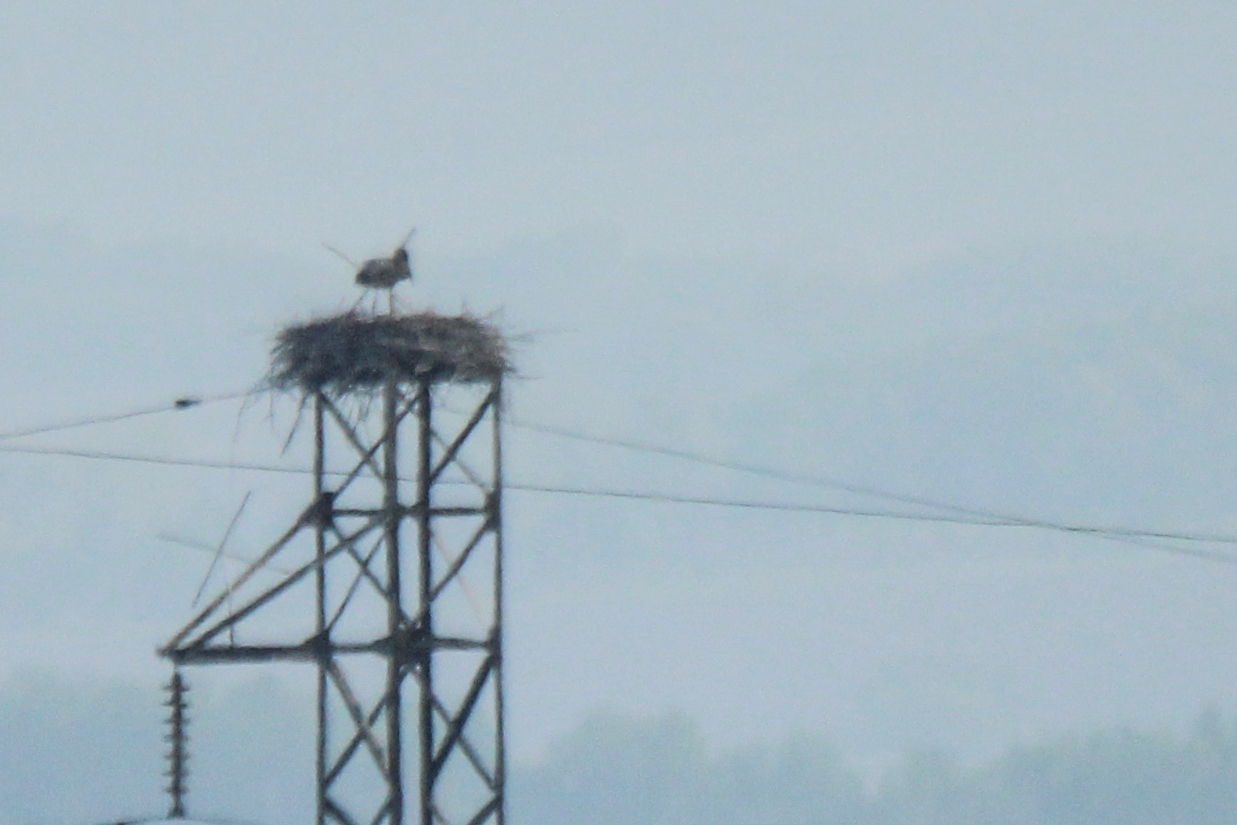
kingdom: Animalia
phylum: Chordata
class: Aves
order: Ciconiiformes
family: Ciconiidae
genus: Ciconia
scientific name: Ciconia boyciana
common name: Oriental stork
